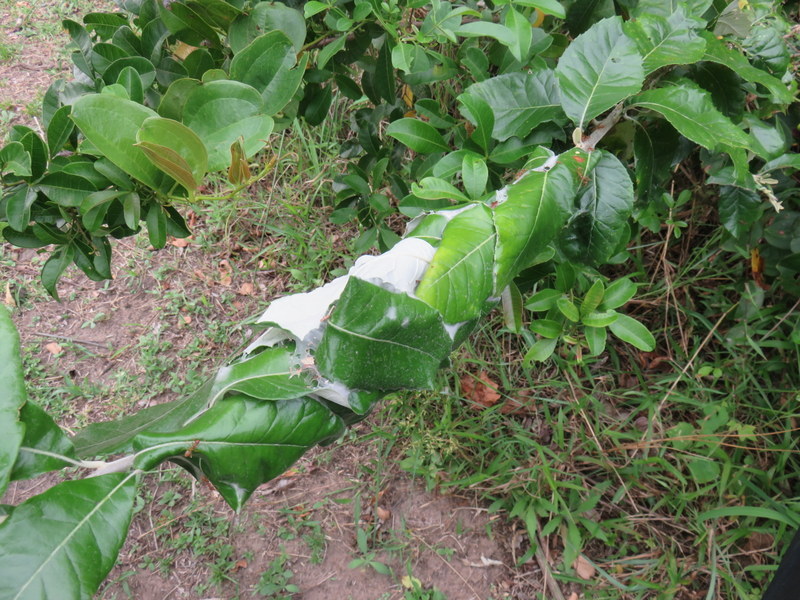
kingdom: Animalia
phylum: Arthropoda
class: Insecta
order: Hymenoptera
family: Formicidae
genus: Oecophylla
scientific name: Oecophylla longinoda
